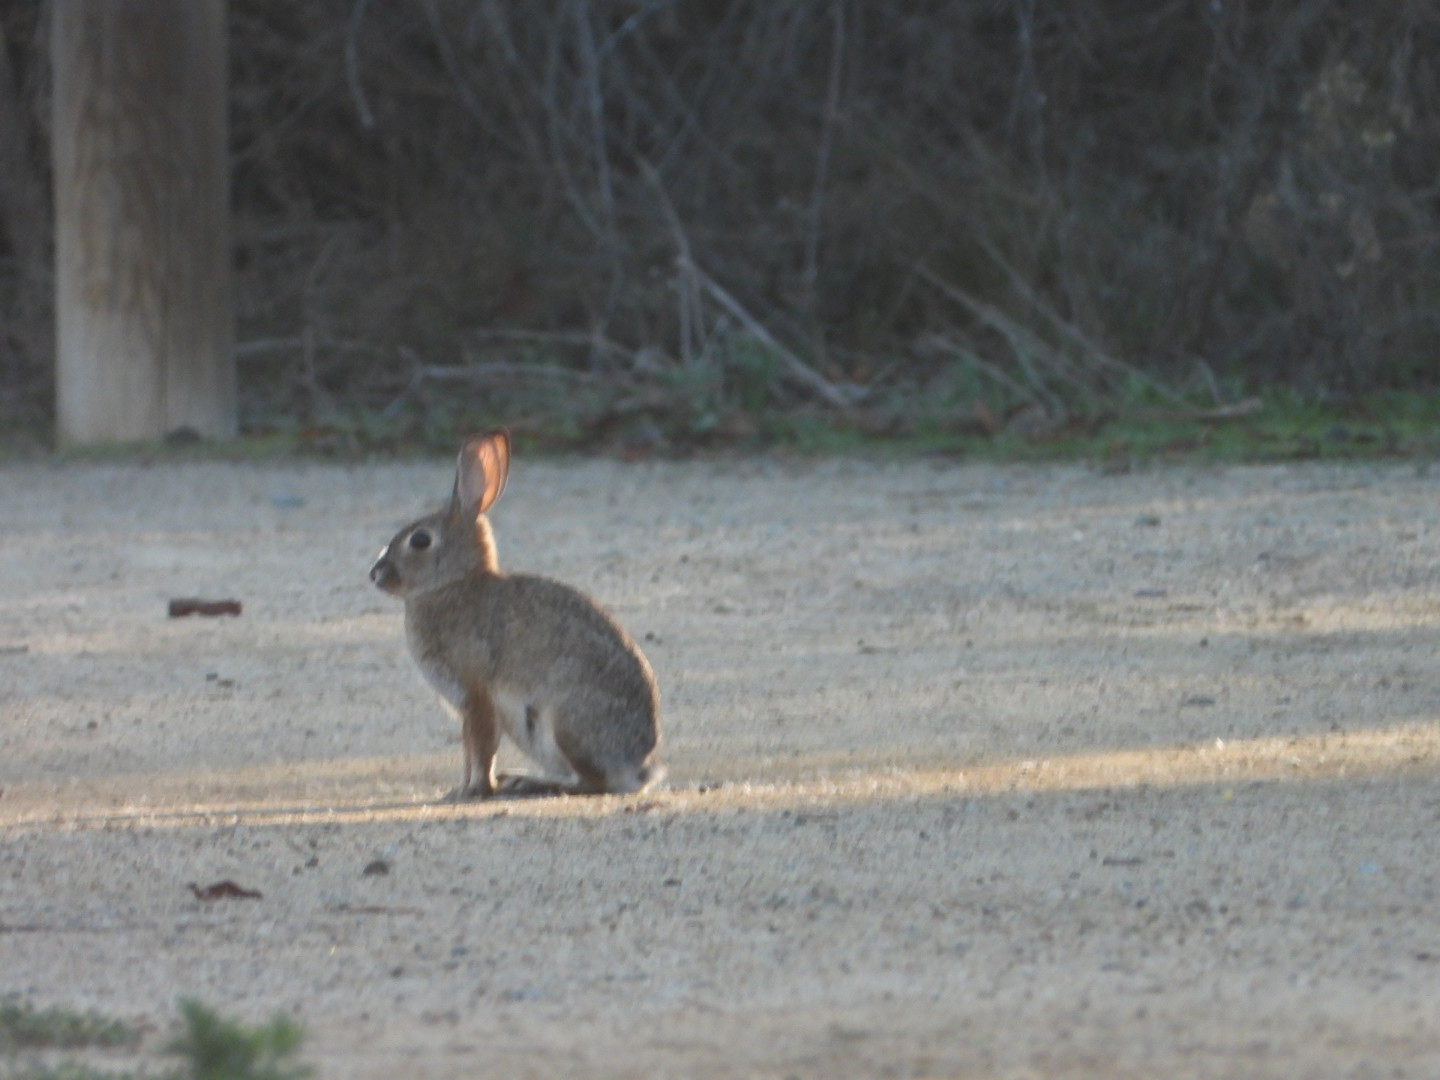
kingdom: Animalia
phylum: Chordata
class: Mammalia
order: Lagomorpha
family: Leporidae
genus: Sylvilagus
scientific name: Sylvilagus audubonii
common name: Desert cottontail
